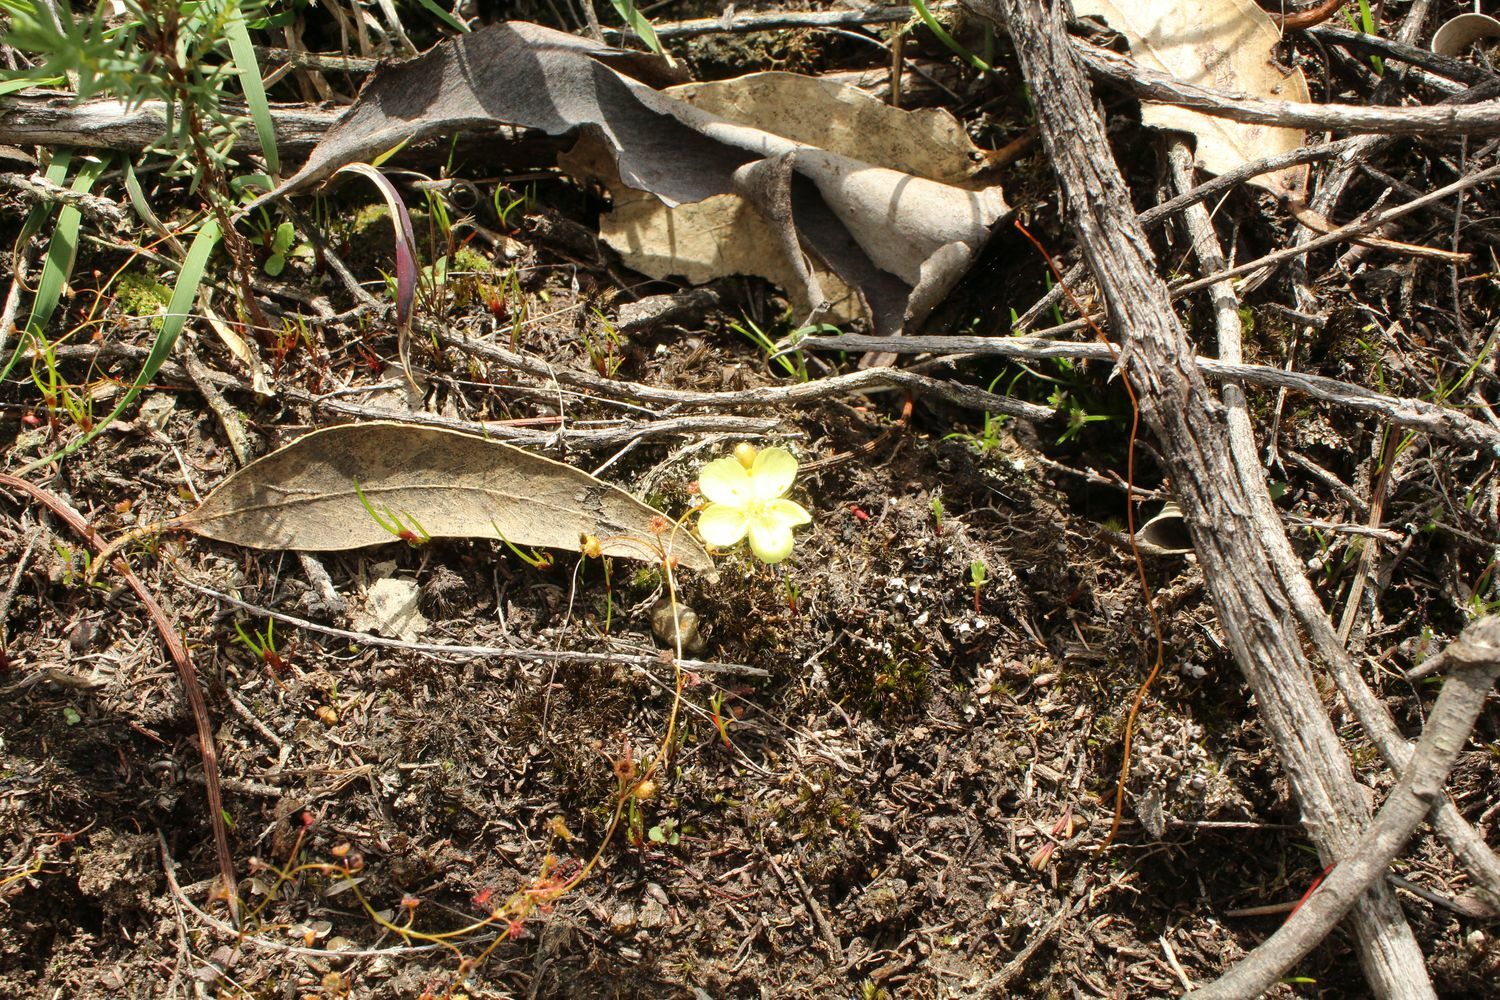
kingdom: Plantae
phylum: Tracheophyta
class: Magnoliopsida
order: Caryophyllales
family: Droseraceae
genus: Drosera
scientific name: Drosera intricata
